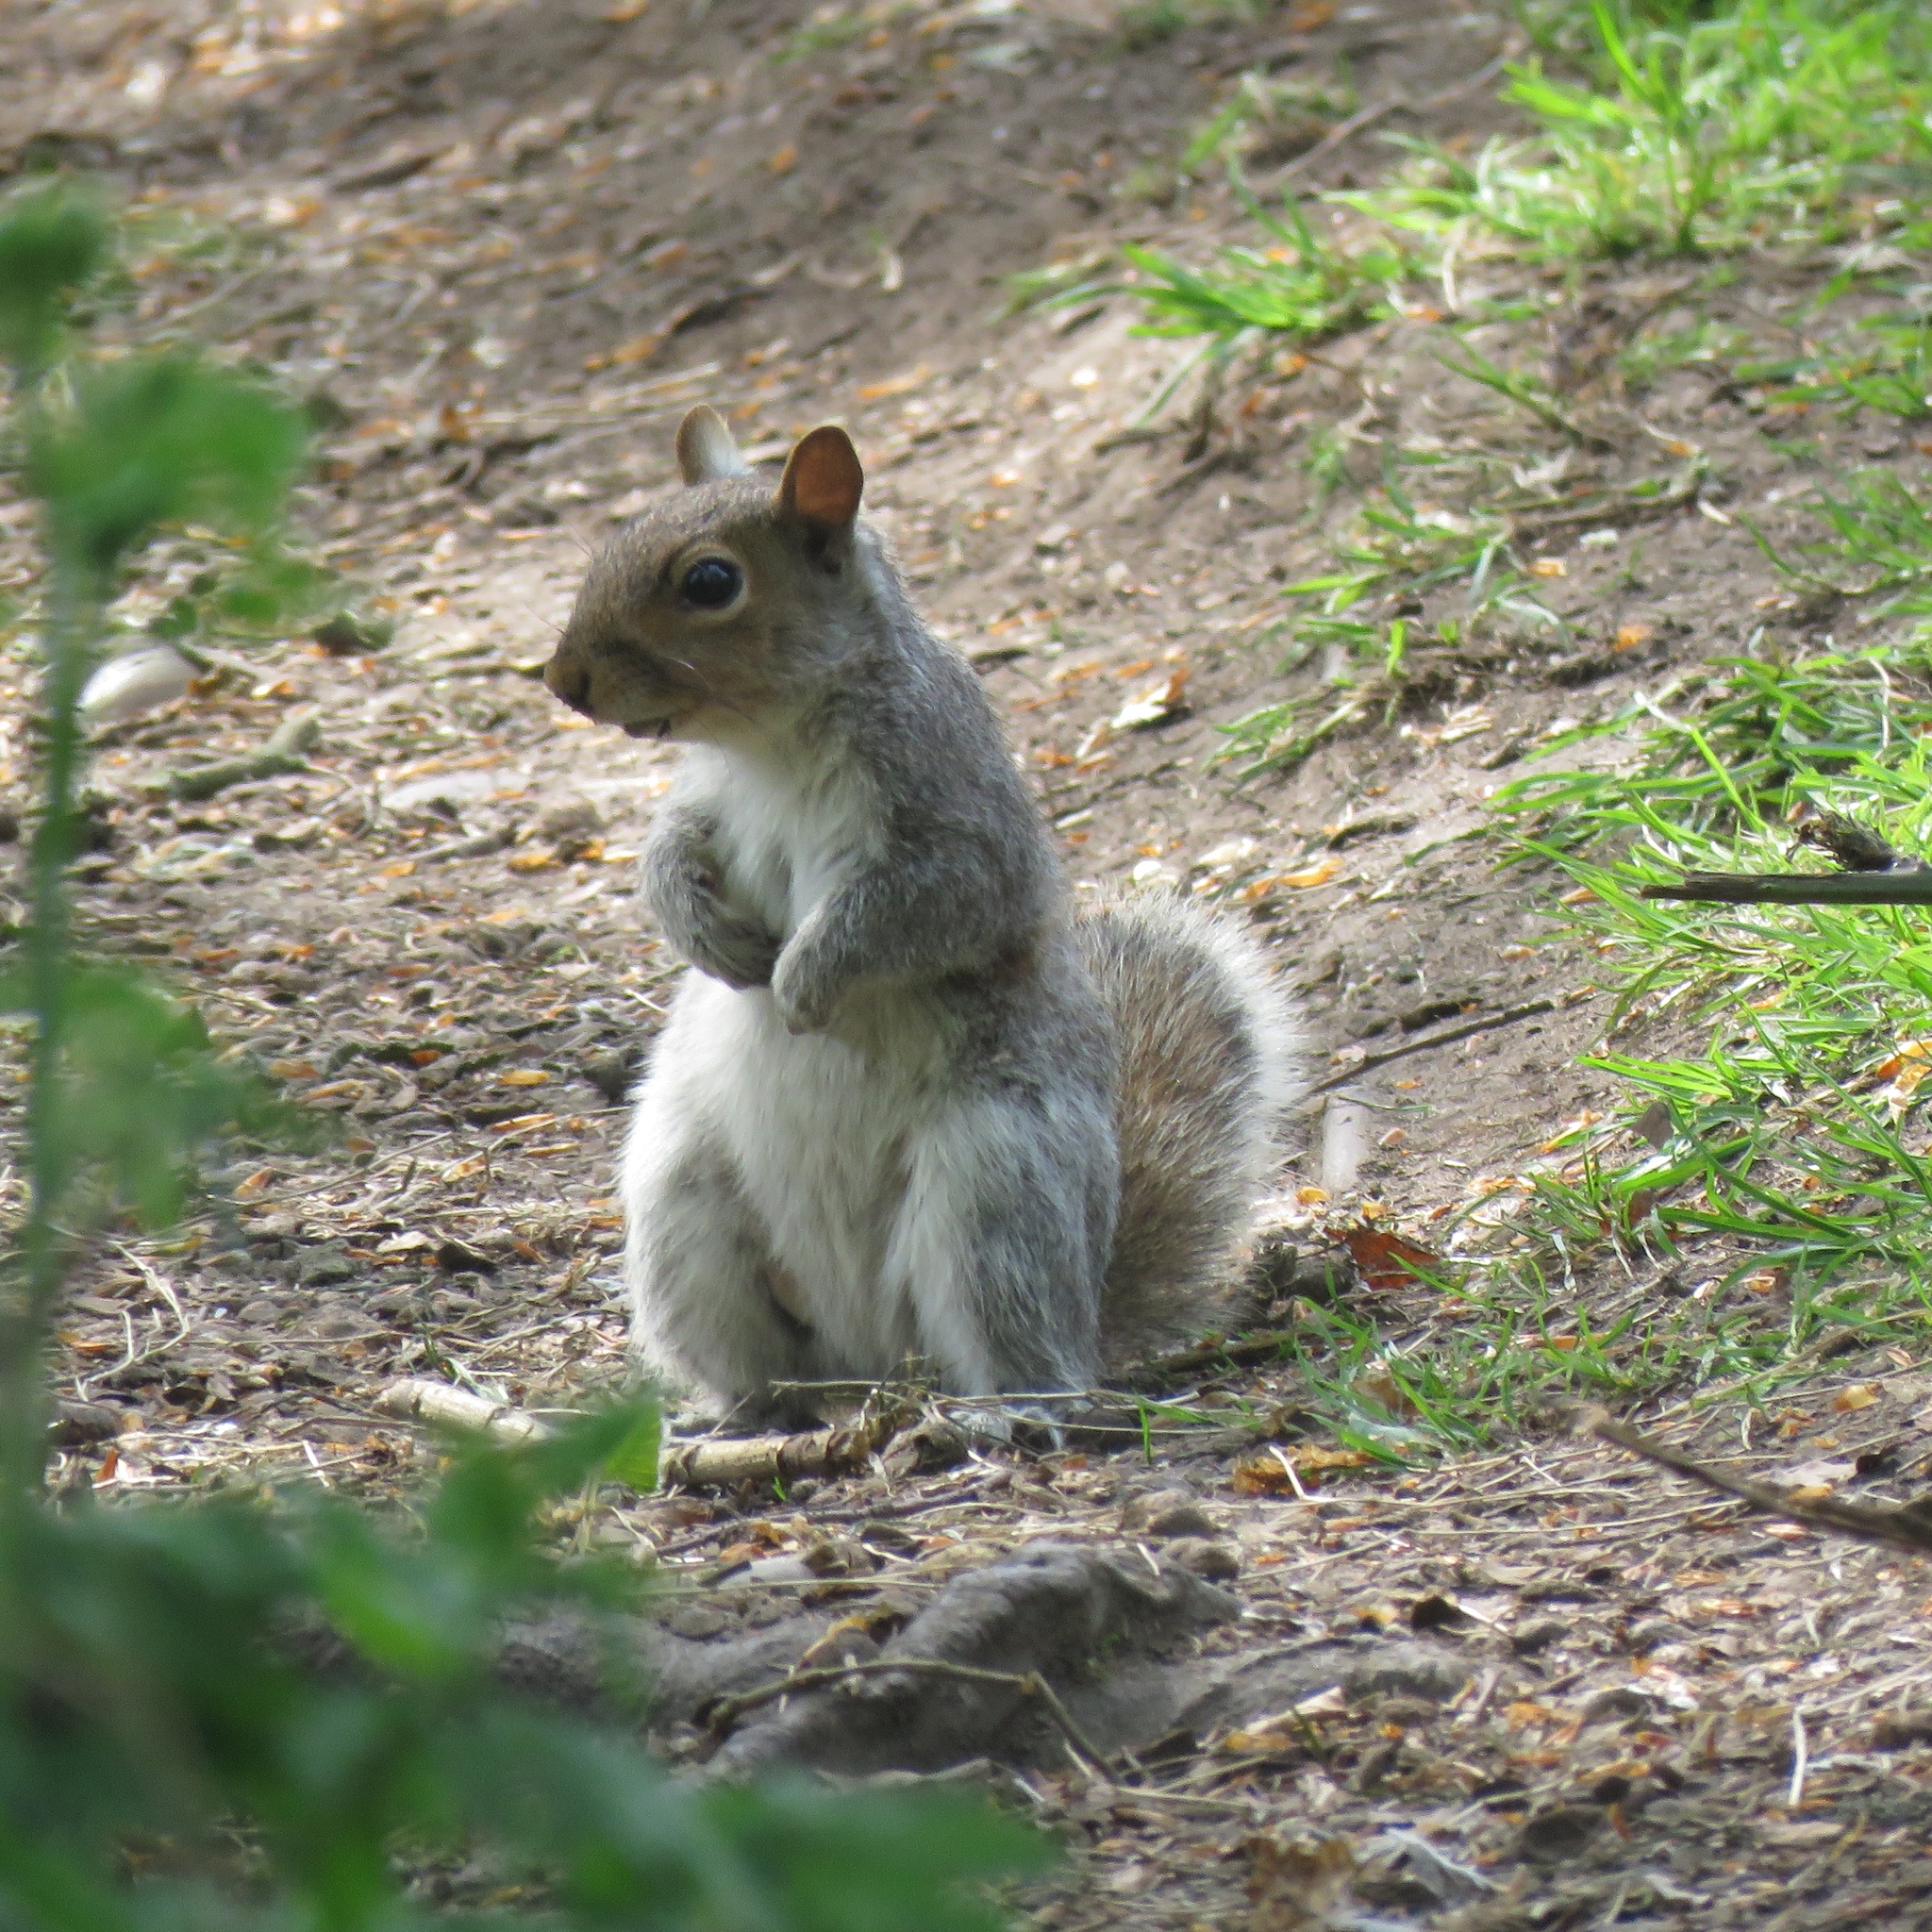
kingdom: Animalia
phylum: Chordata
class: Mammalia
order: Rodentia
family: Sciuridae
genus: Sciurus
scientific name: Sciurus carolinensis
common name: Eastern gray squirrel
